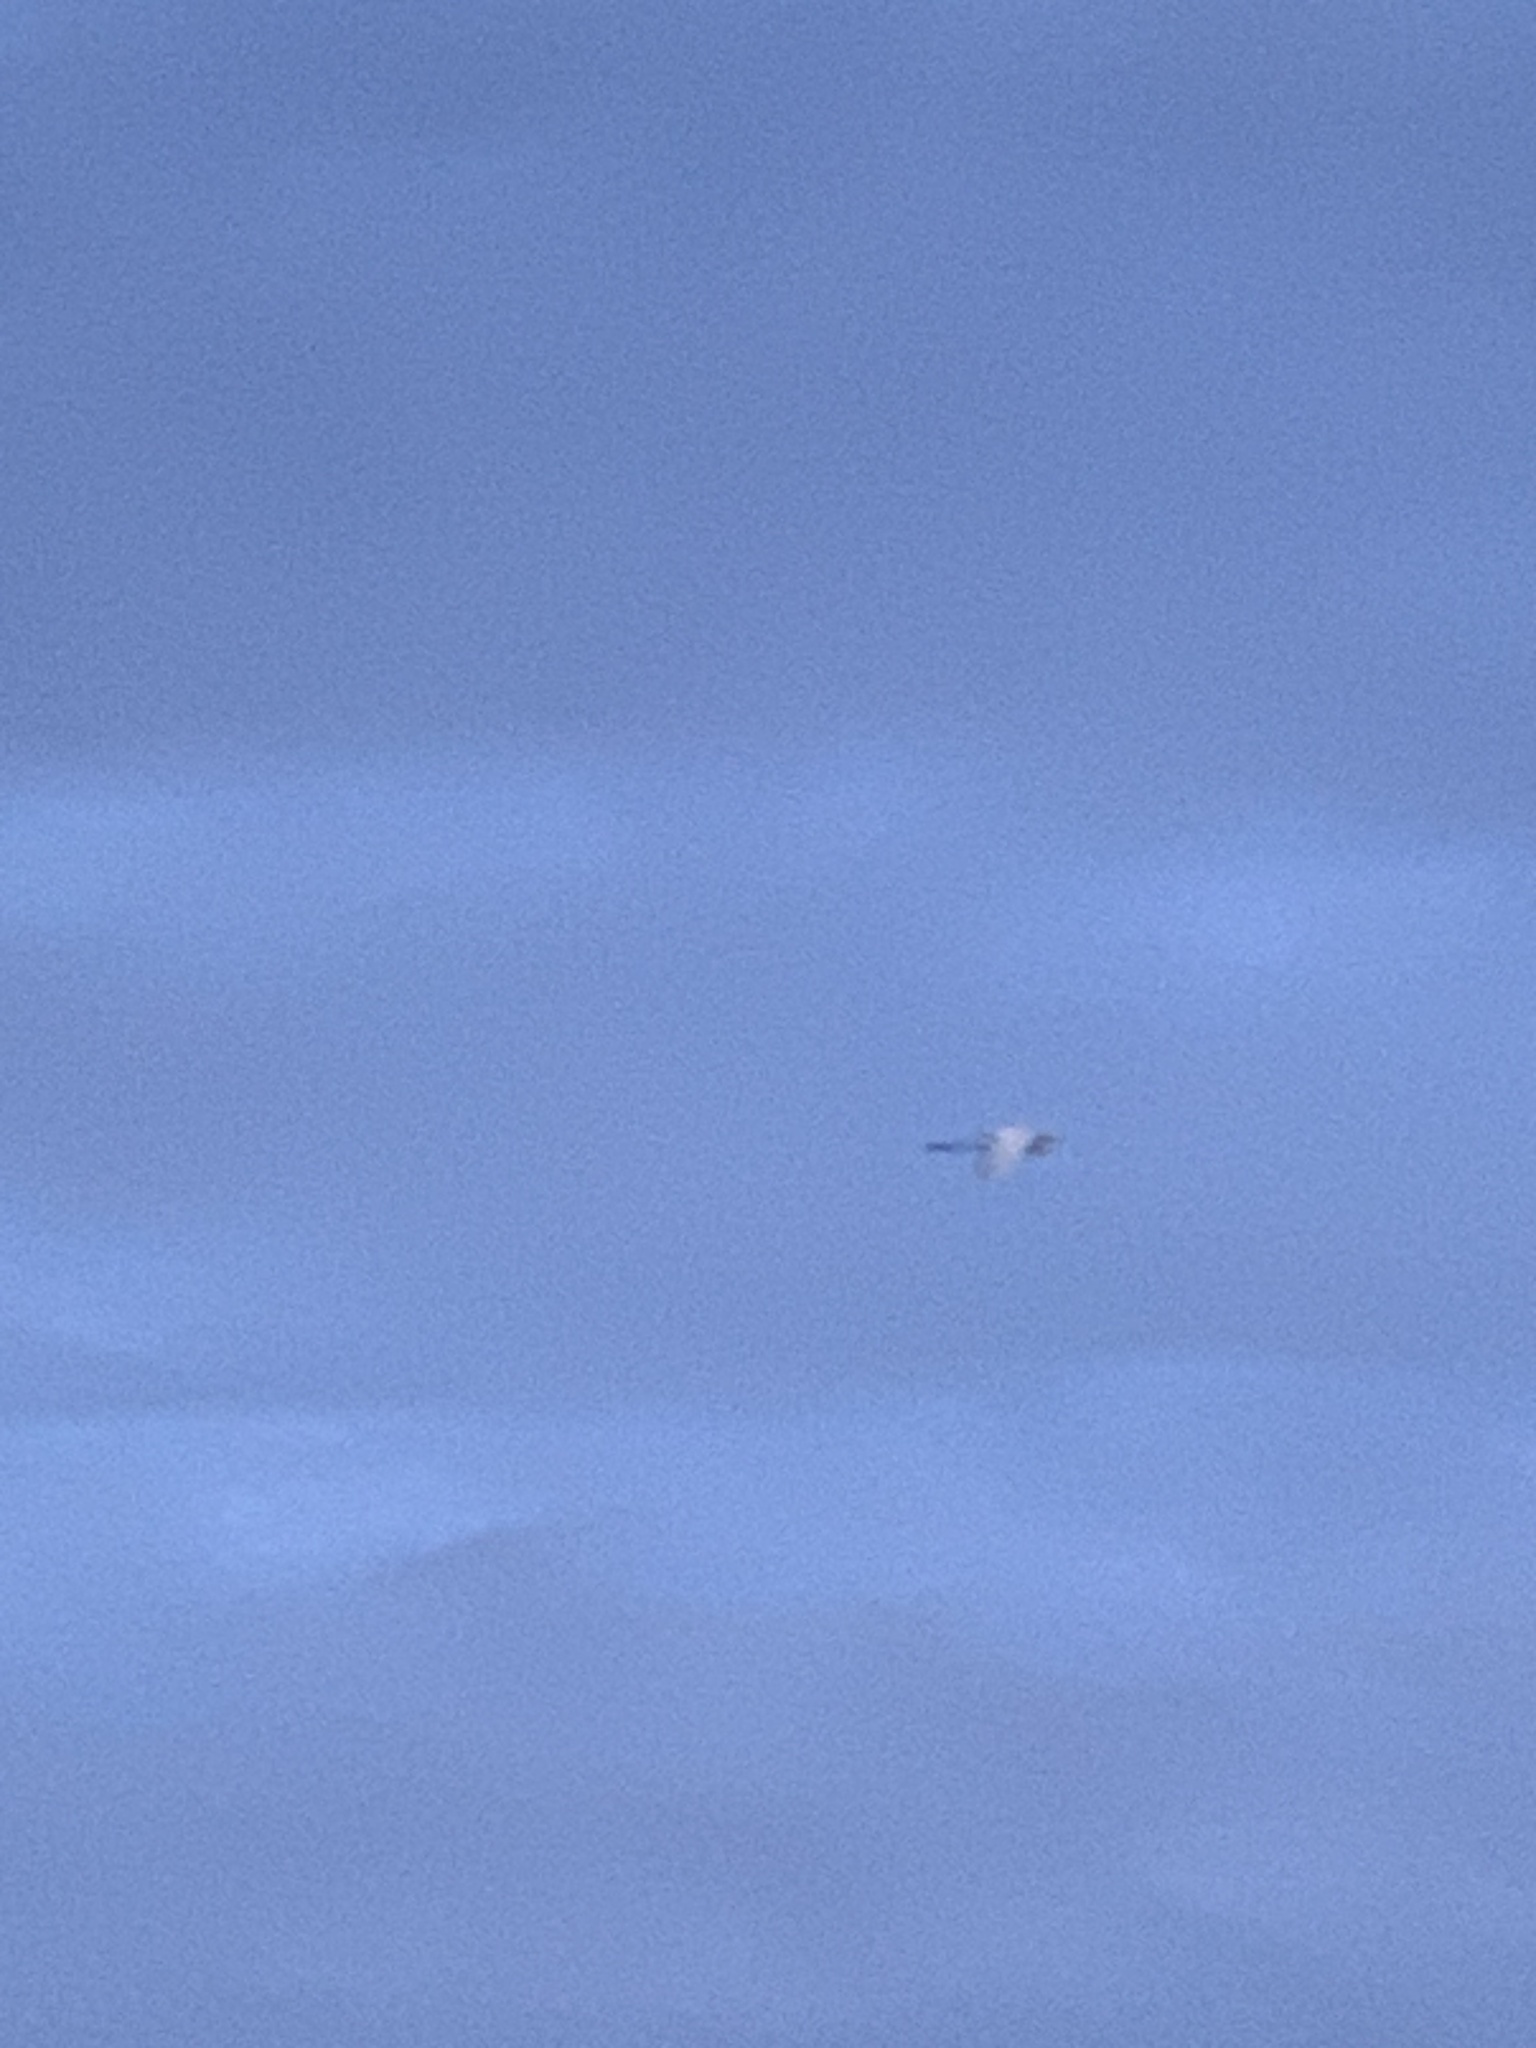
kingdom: Animalia
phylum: Chordata
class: Aves
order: Pelecaniformes
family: Ardeidae
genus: Ardea
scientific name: Ardea alba
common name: Great egret
